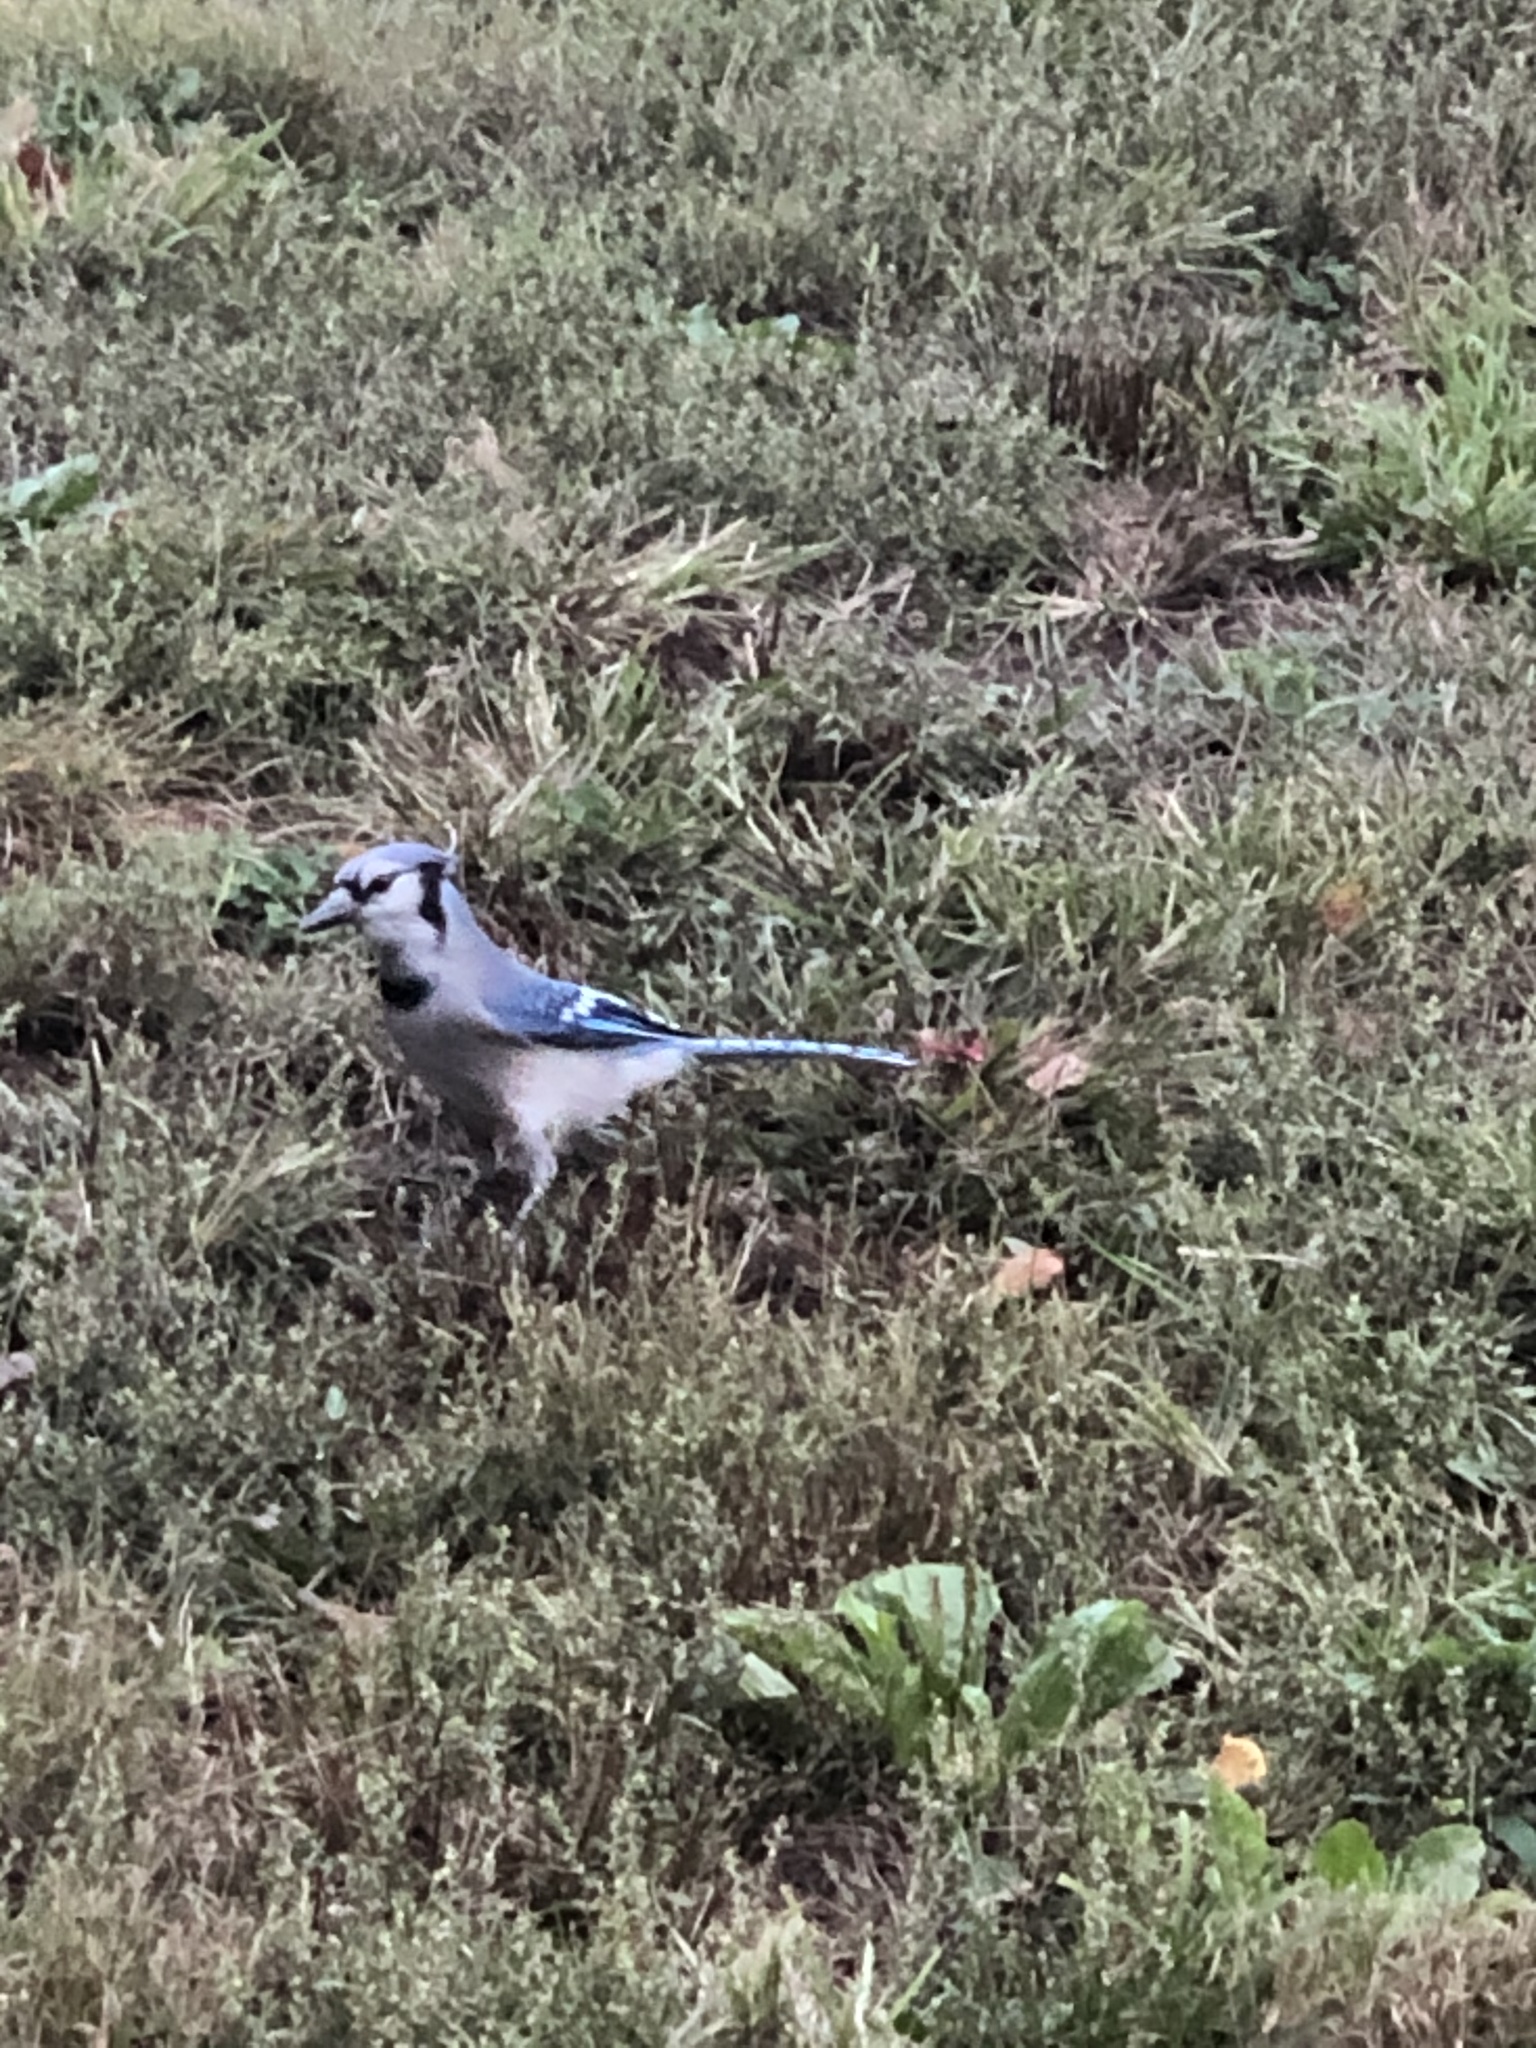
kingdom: Animalia
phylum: Chordata
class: Aves
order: Passeriformes
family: Corvidae
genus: Cyanocitta
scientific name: Cyanocitta cristata
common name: Blue jay
